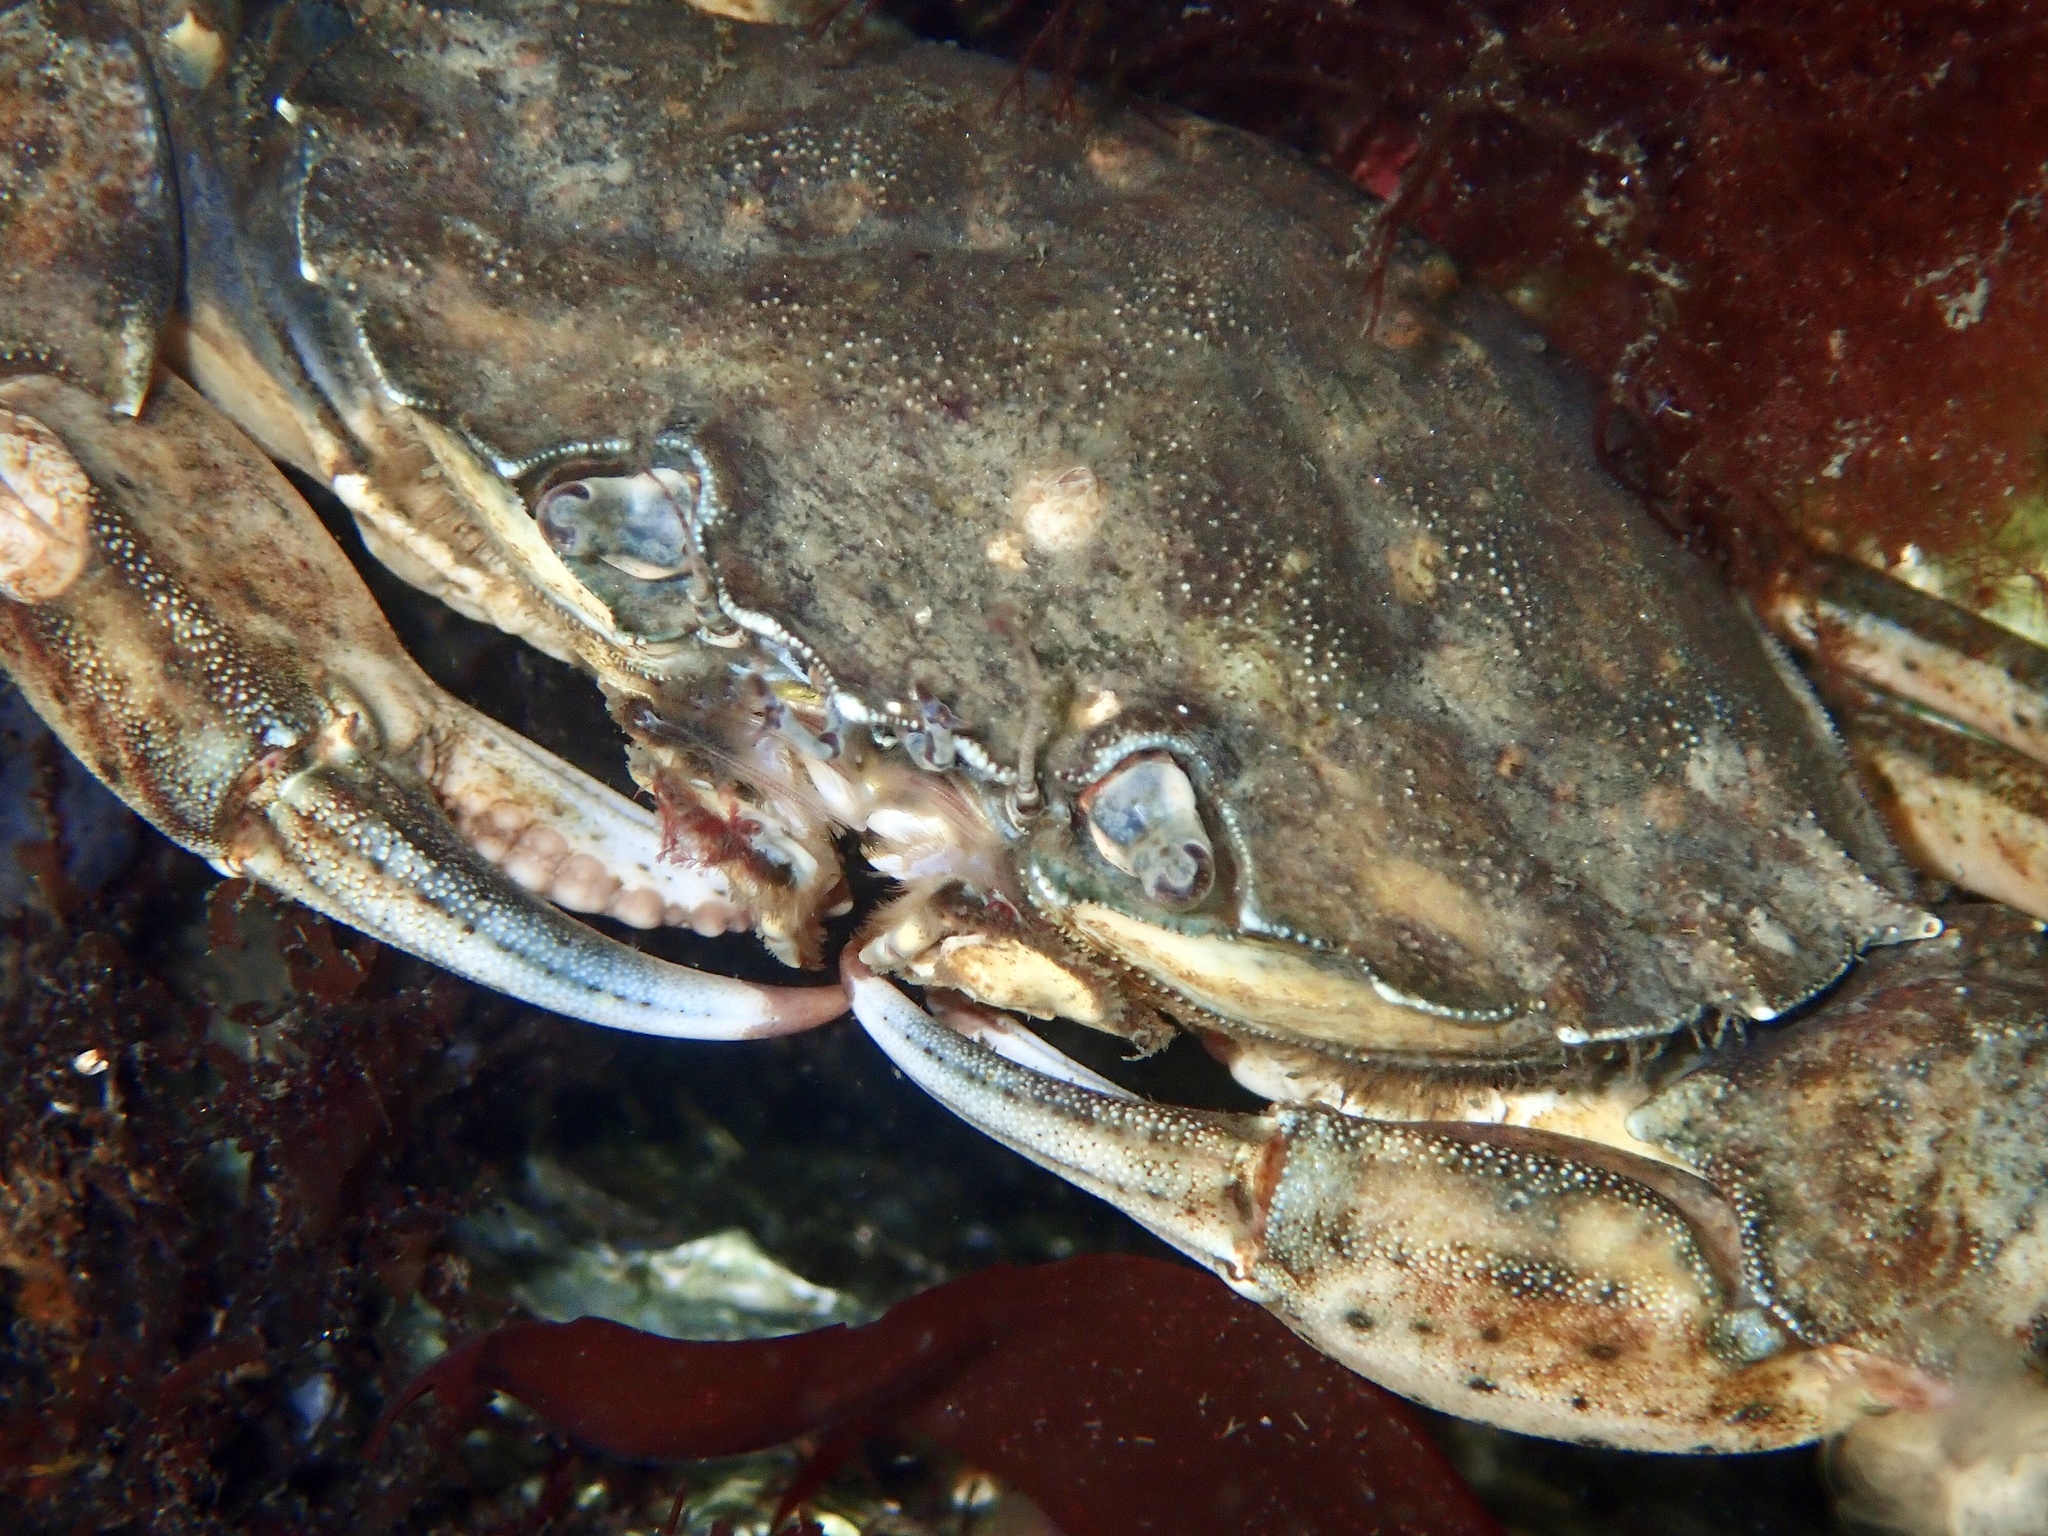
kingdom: Animalia
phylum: Arthropoda
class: Malacostraca
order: Decapoda
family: Carcinidae
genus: Carcinus
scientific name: Carcinus maenas
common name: European green crab
